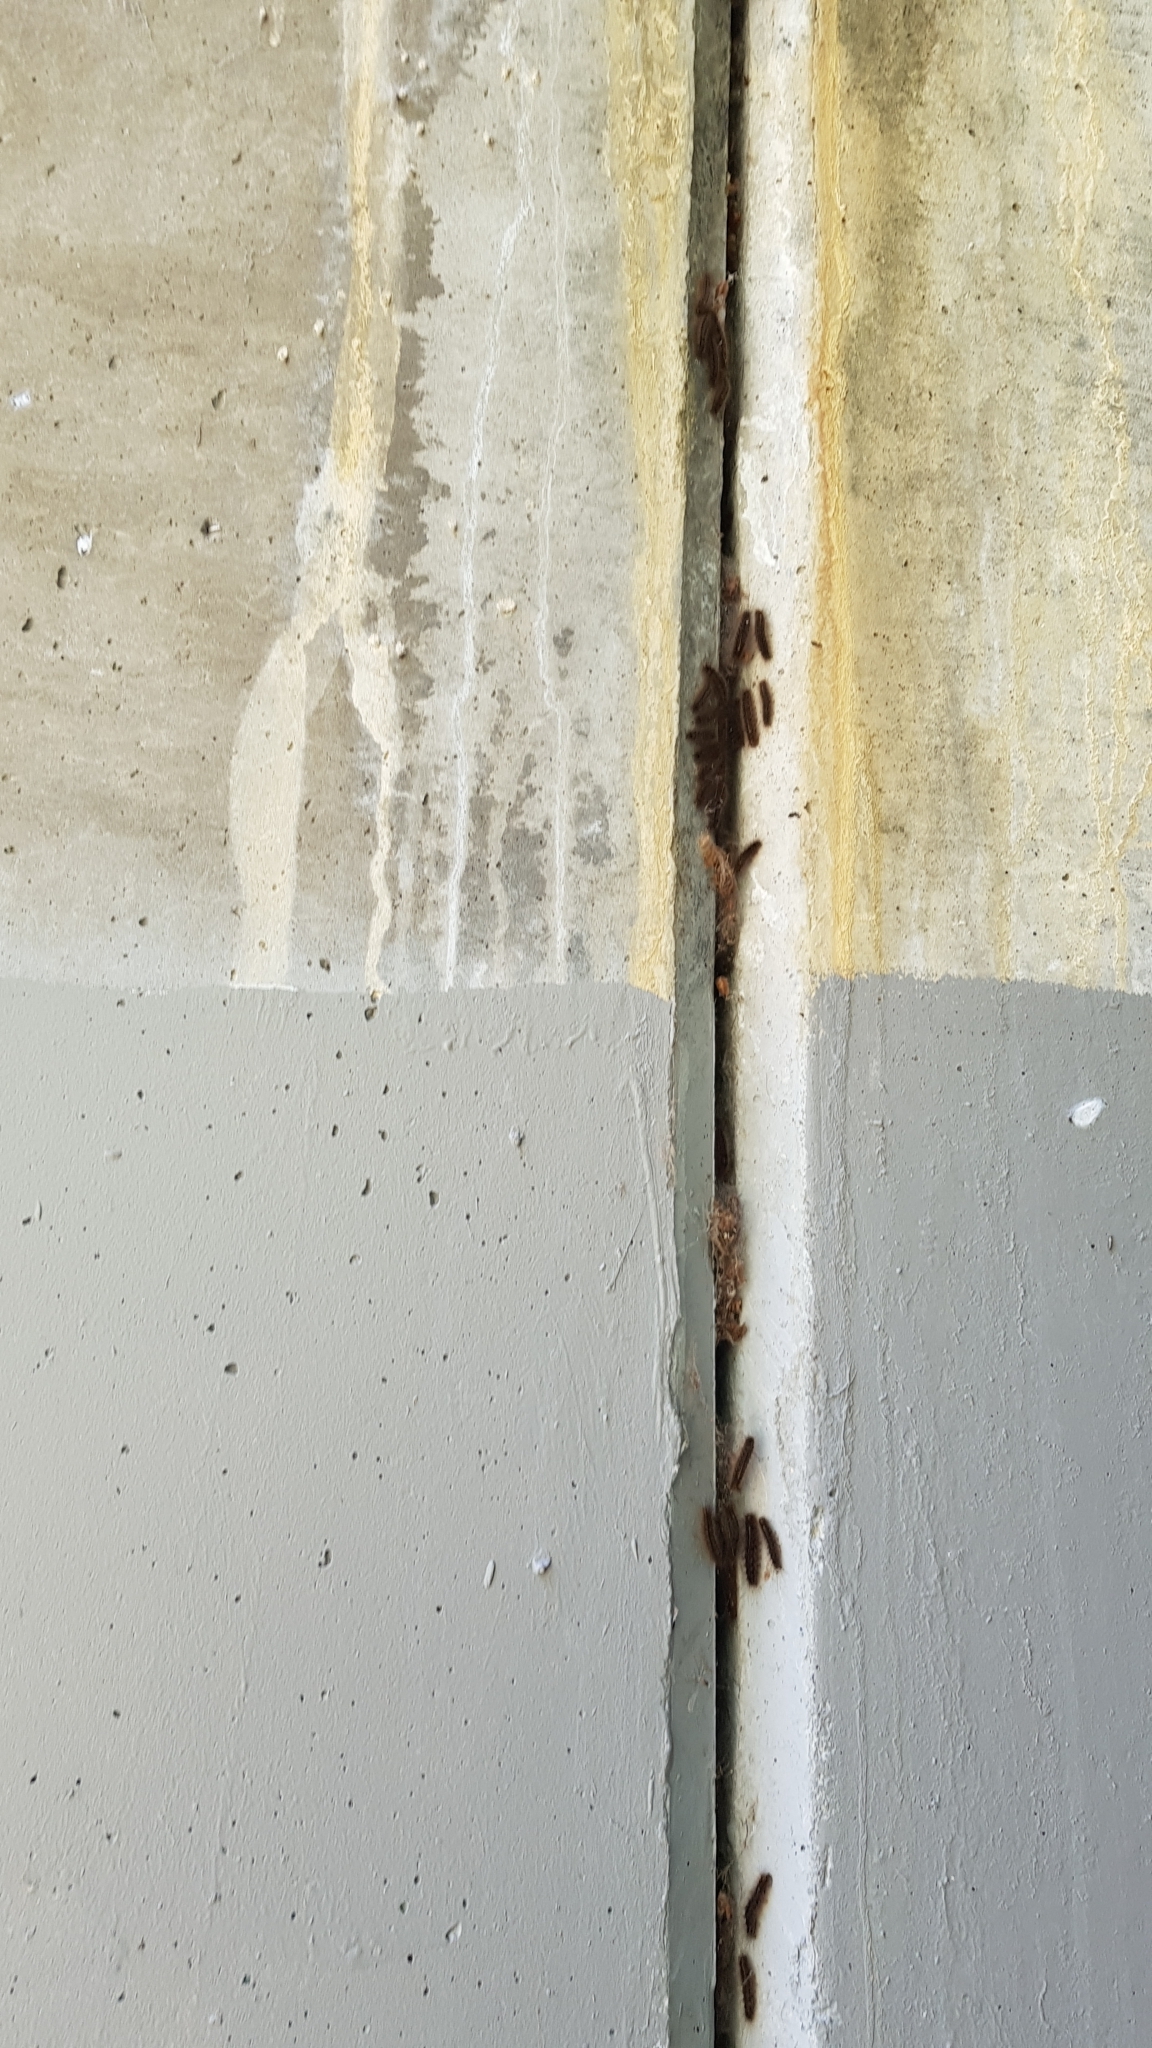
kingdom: Animalia
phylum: Arthropoda
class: Insecta
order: Lepidoptera
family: Erebidae
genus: Leptocneria
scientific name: Leptocneria reducta
